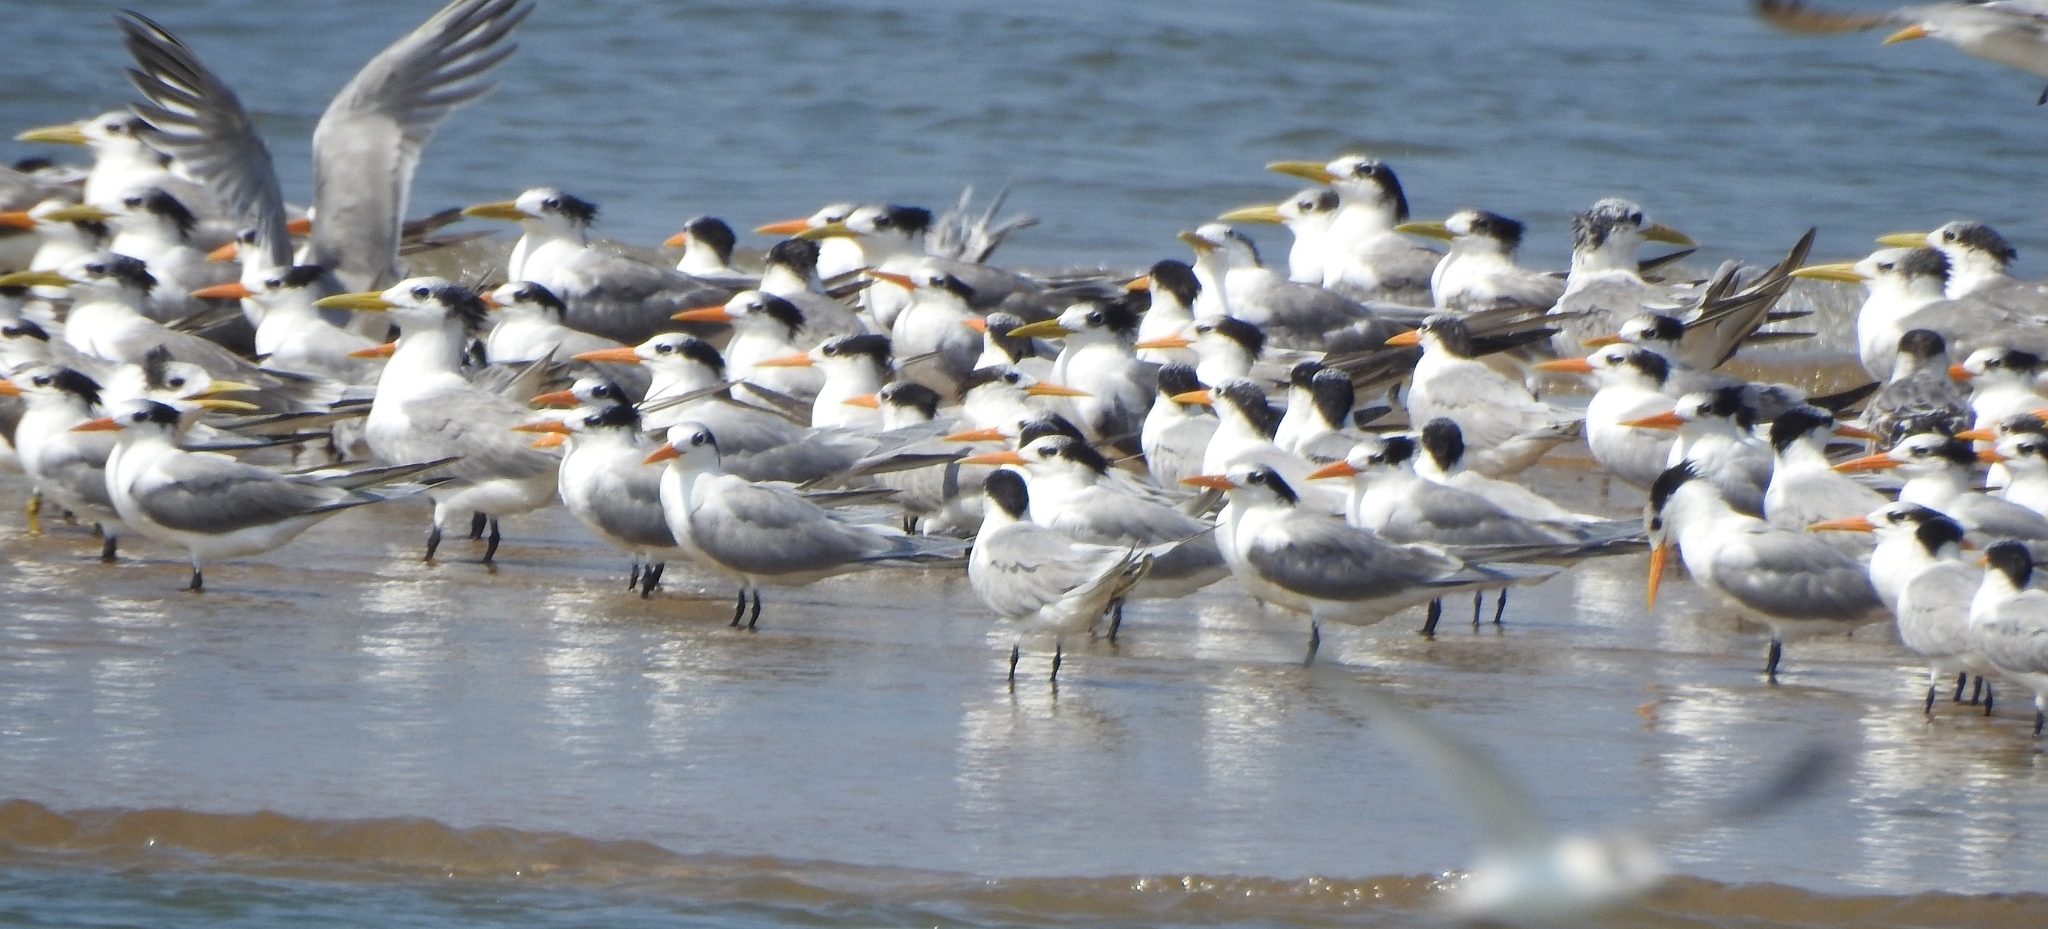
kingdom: Animalia
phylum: Chordata
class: Aves
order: Charadriiformes
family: Laridae
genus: Thalasseus
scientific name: Thalasseus bengalensis
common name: Lesser crested tern
